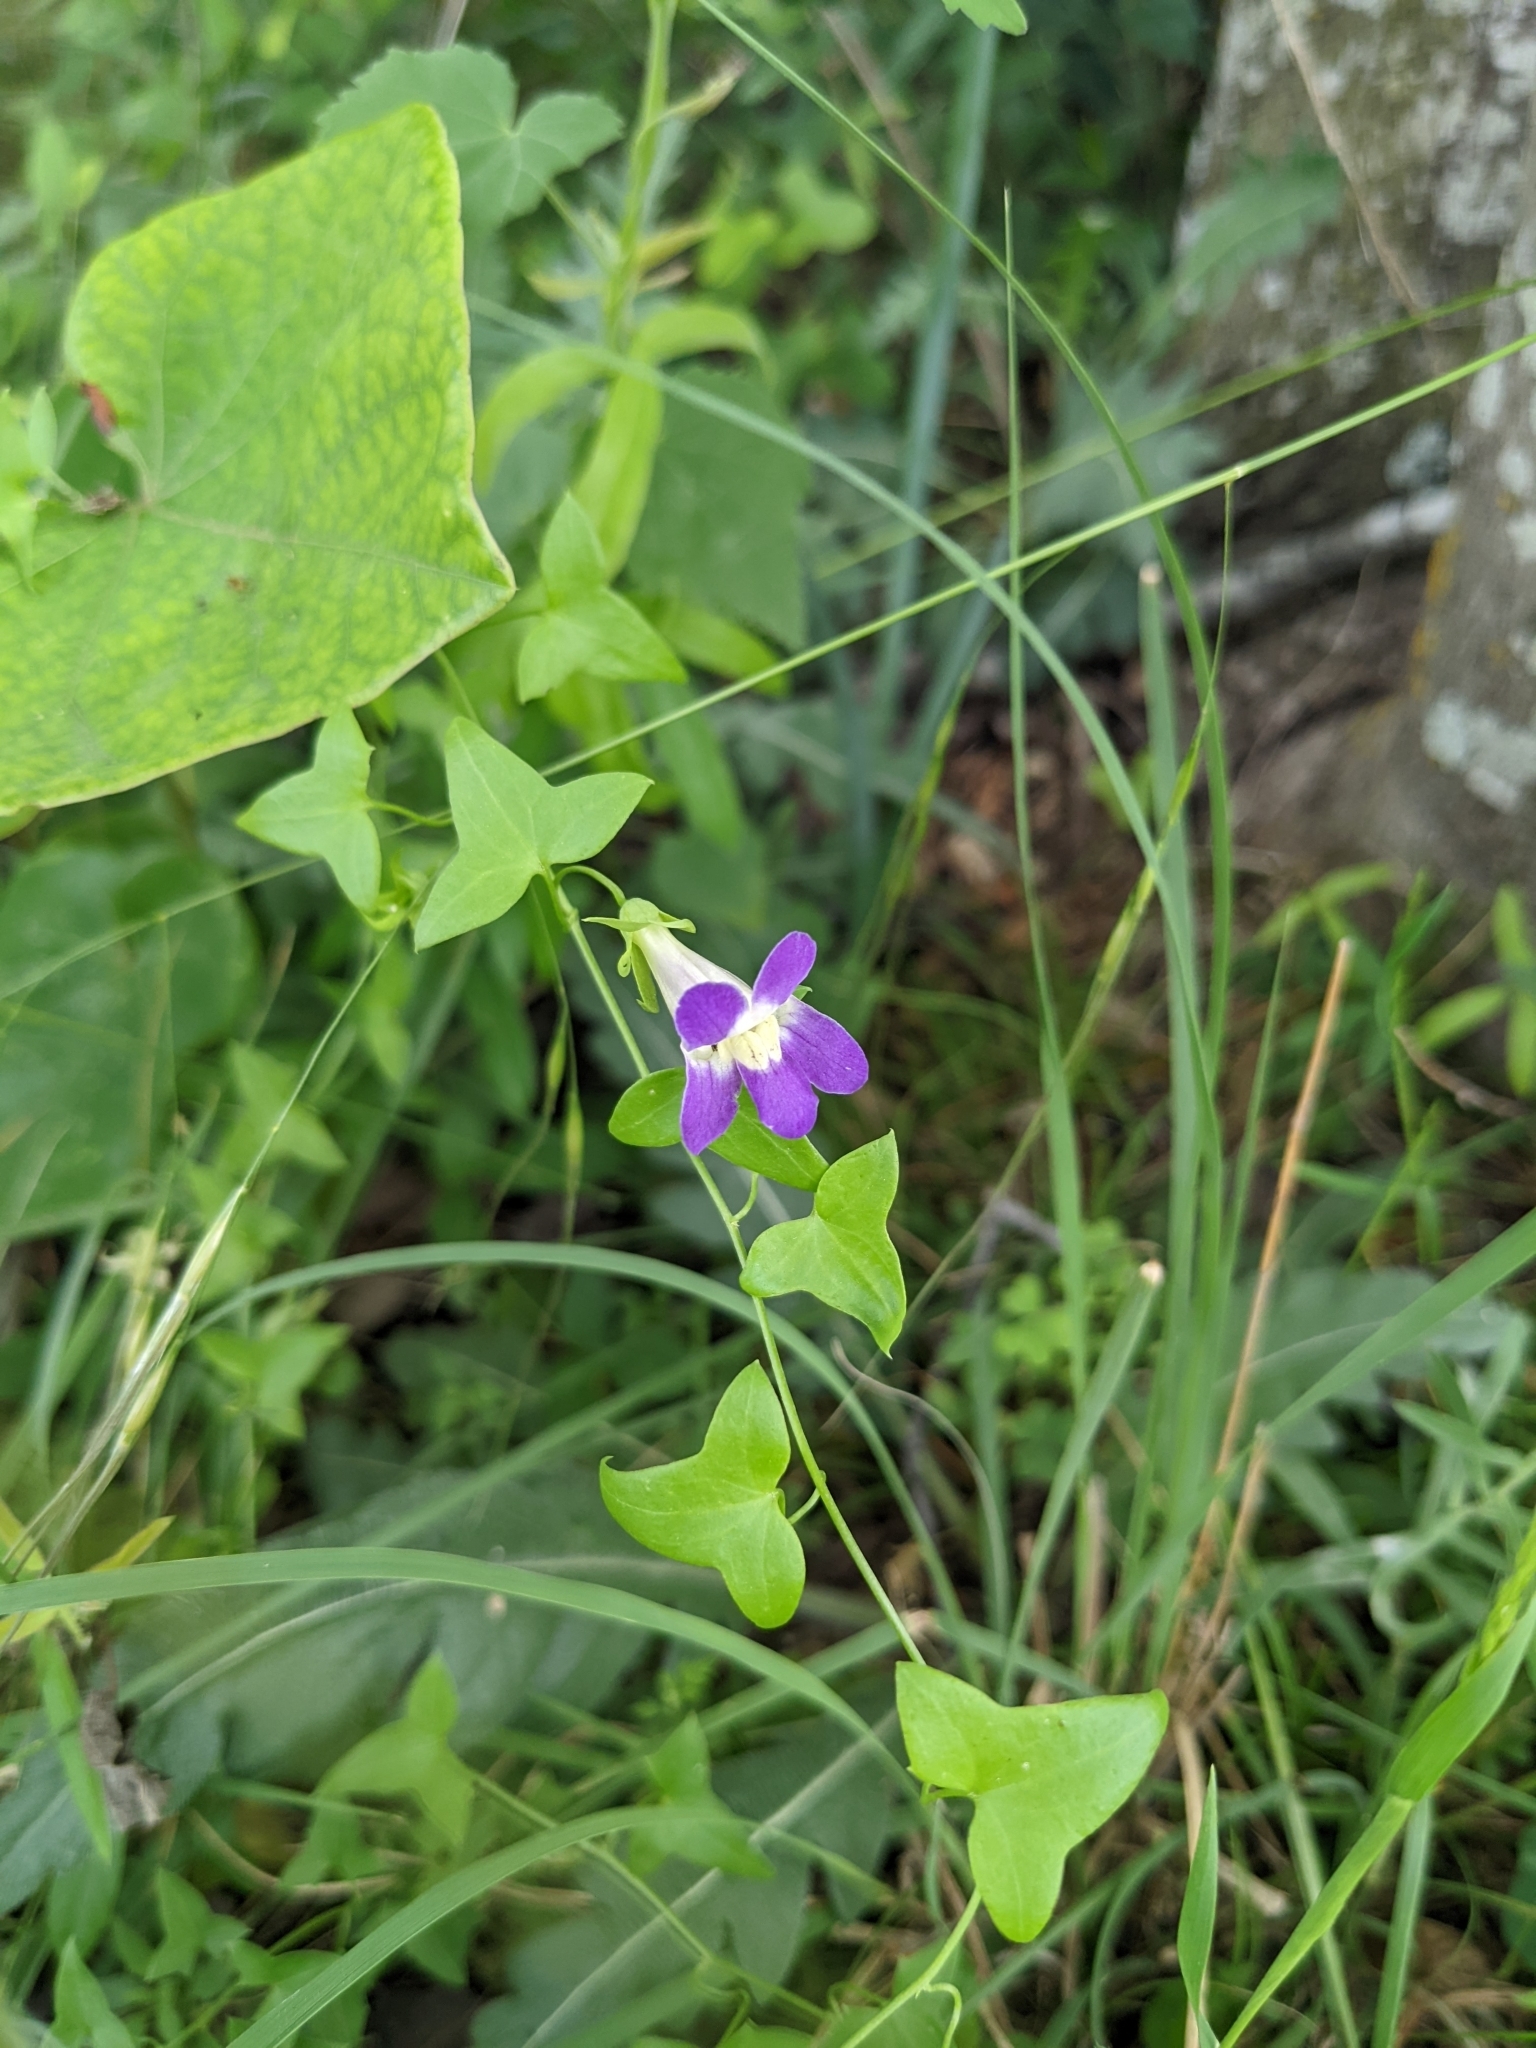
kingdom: Plantae
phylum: Tracheophyta
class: Magnoliopsida
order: Lamiales
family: Plantaginaceae
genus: Maurandella
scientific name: Maurandella antirrhiniflora
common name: Violet twining-snapdragon
